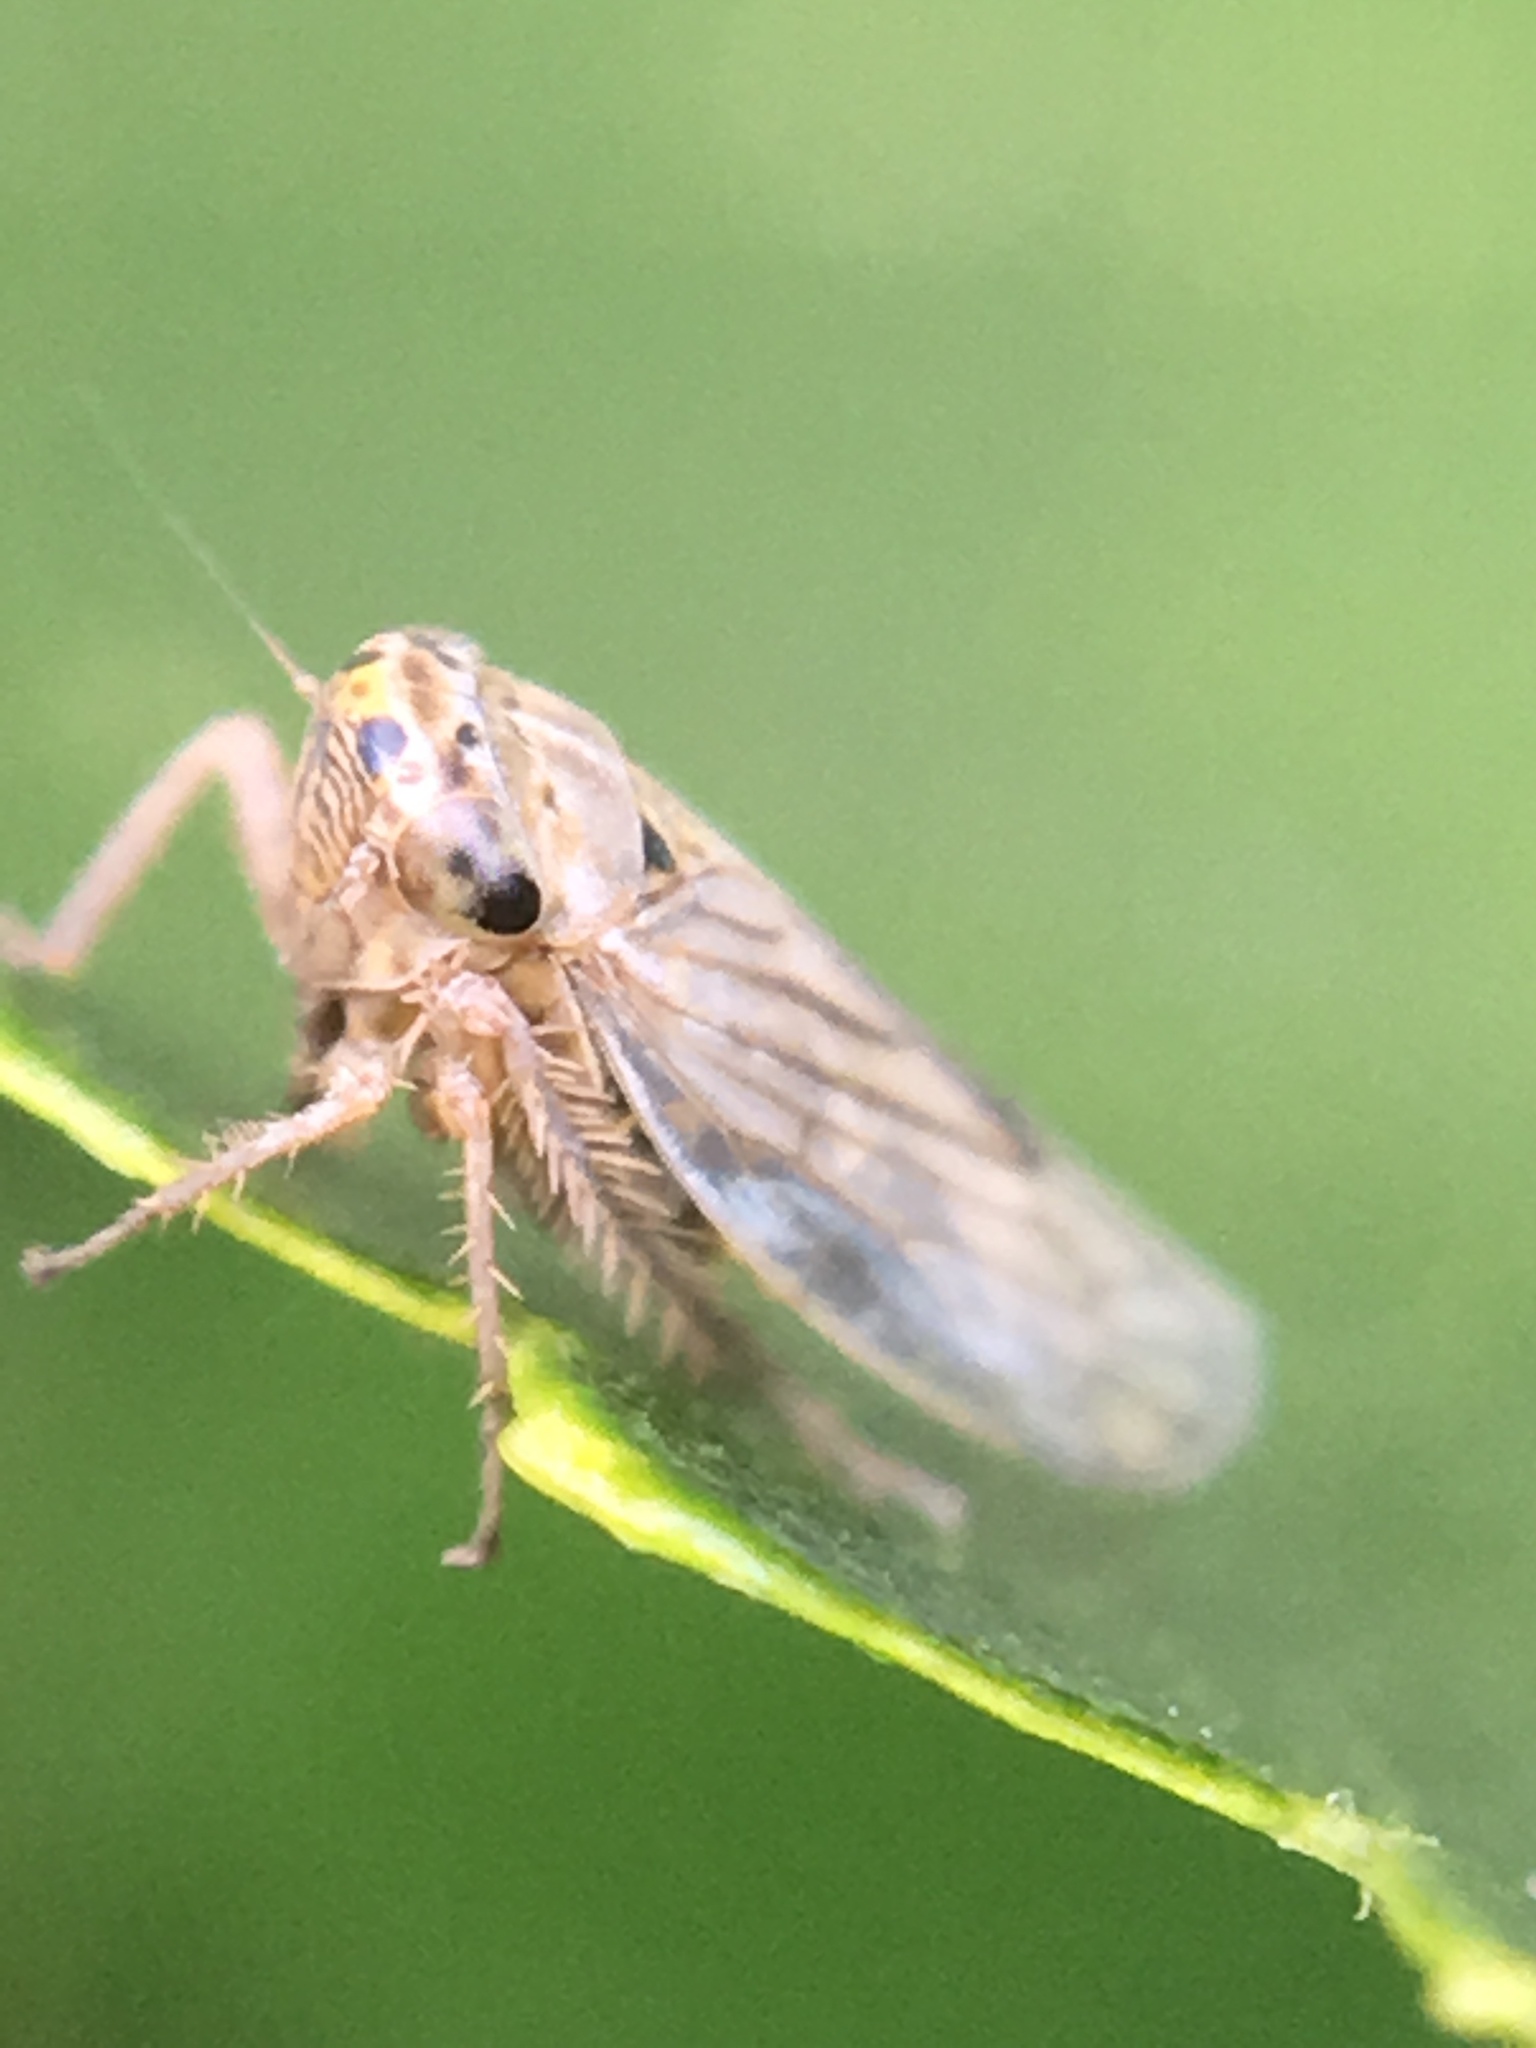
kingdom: Animalia
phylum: Arthropoda
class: Insecta
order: Hemiptera
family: Cicadellidae
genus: Exitianus
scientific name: Exitianus exitiosus
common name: Gray lawn leafhopper
